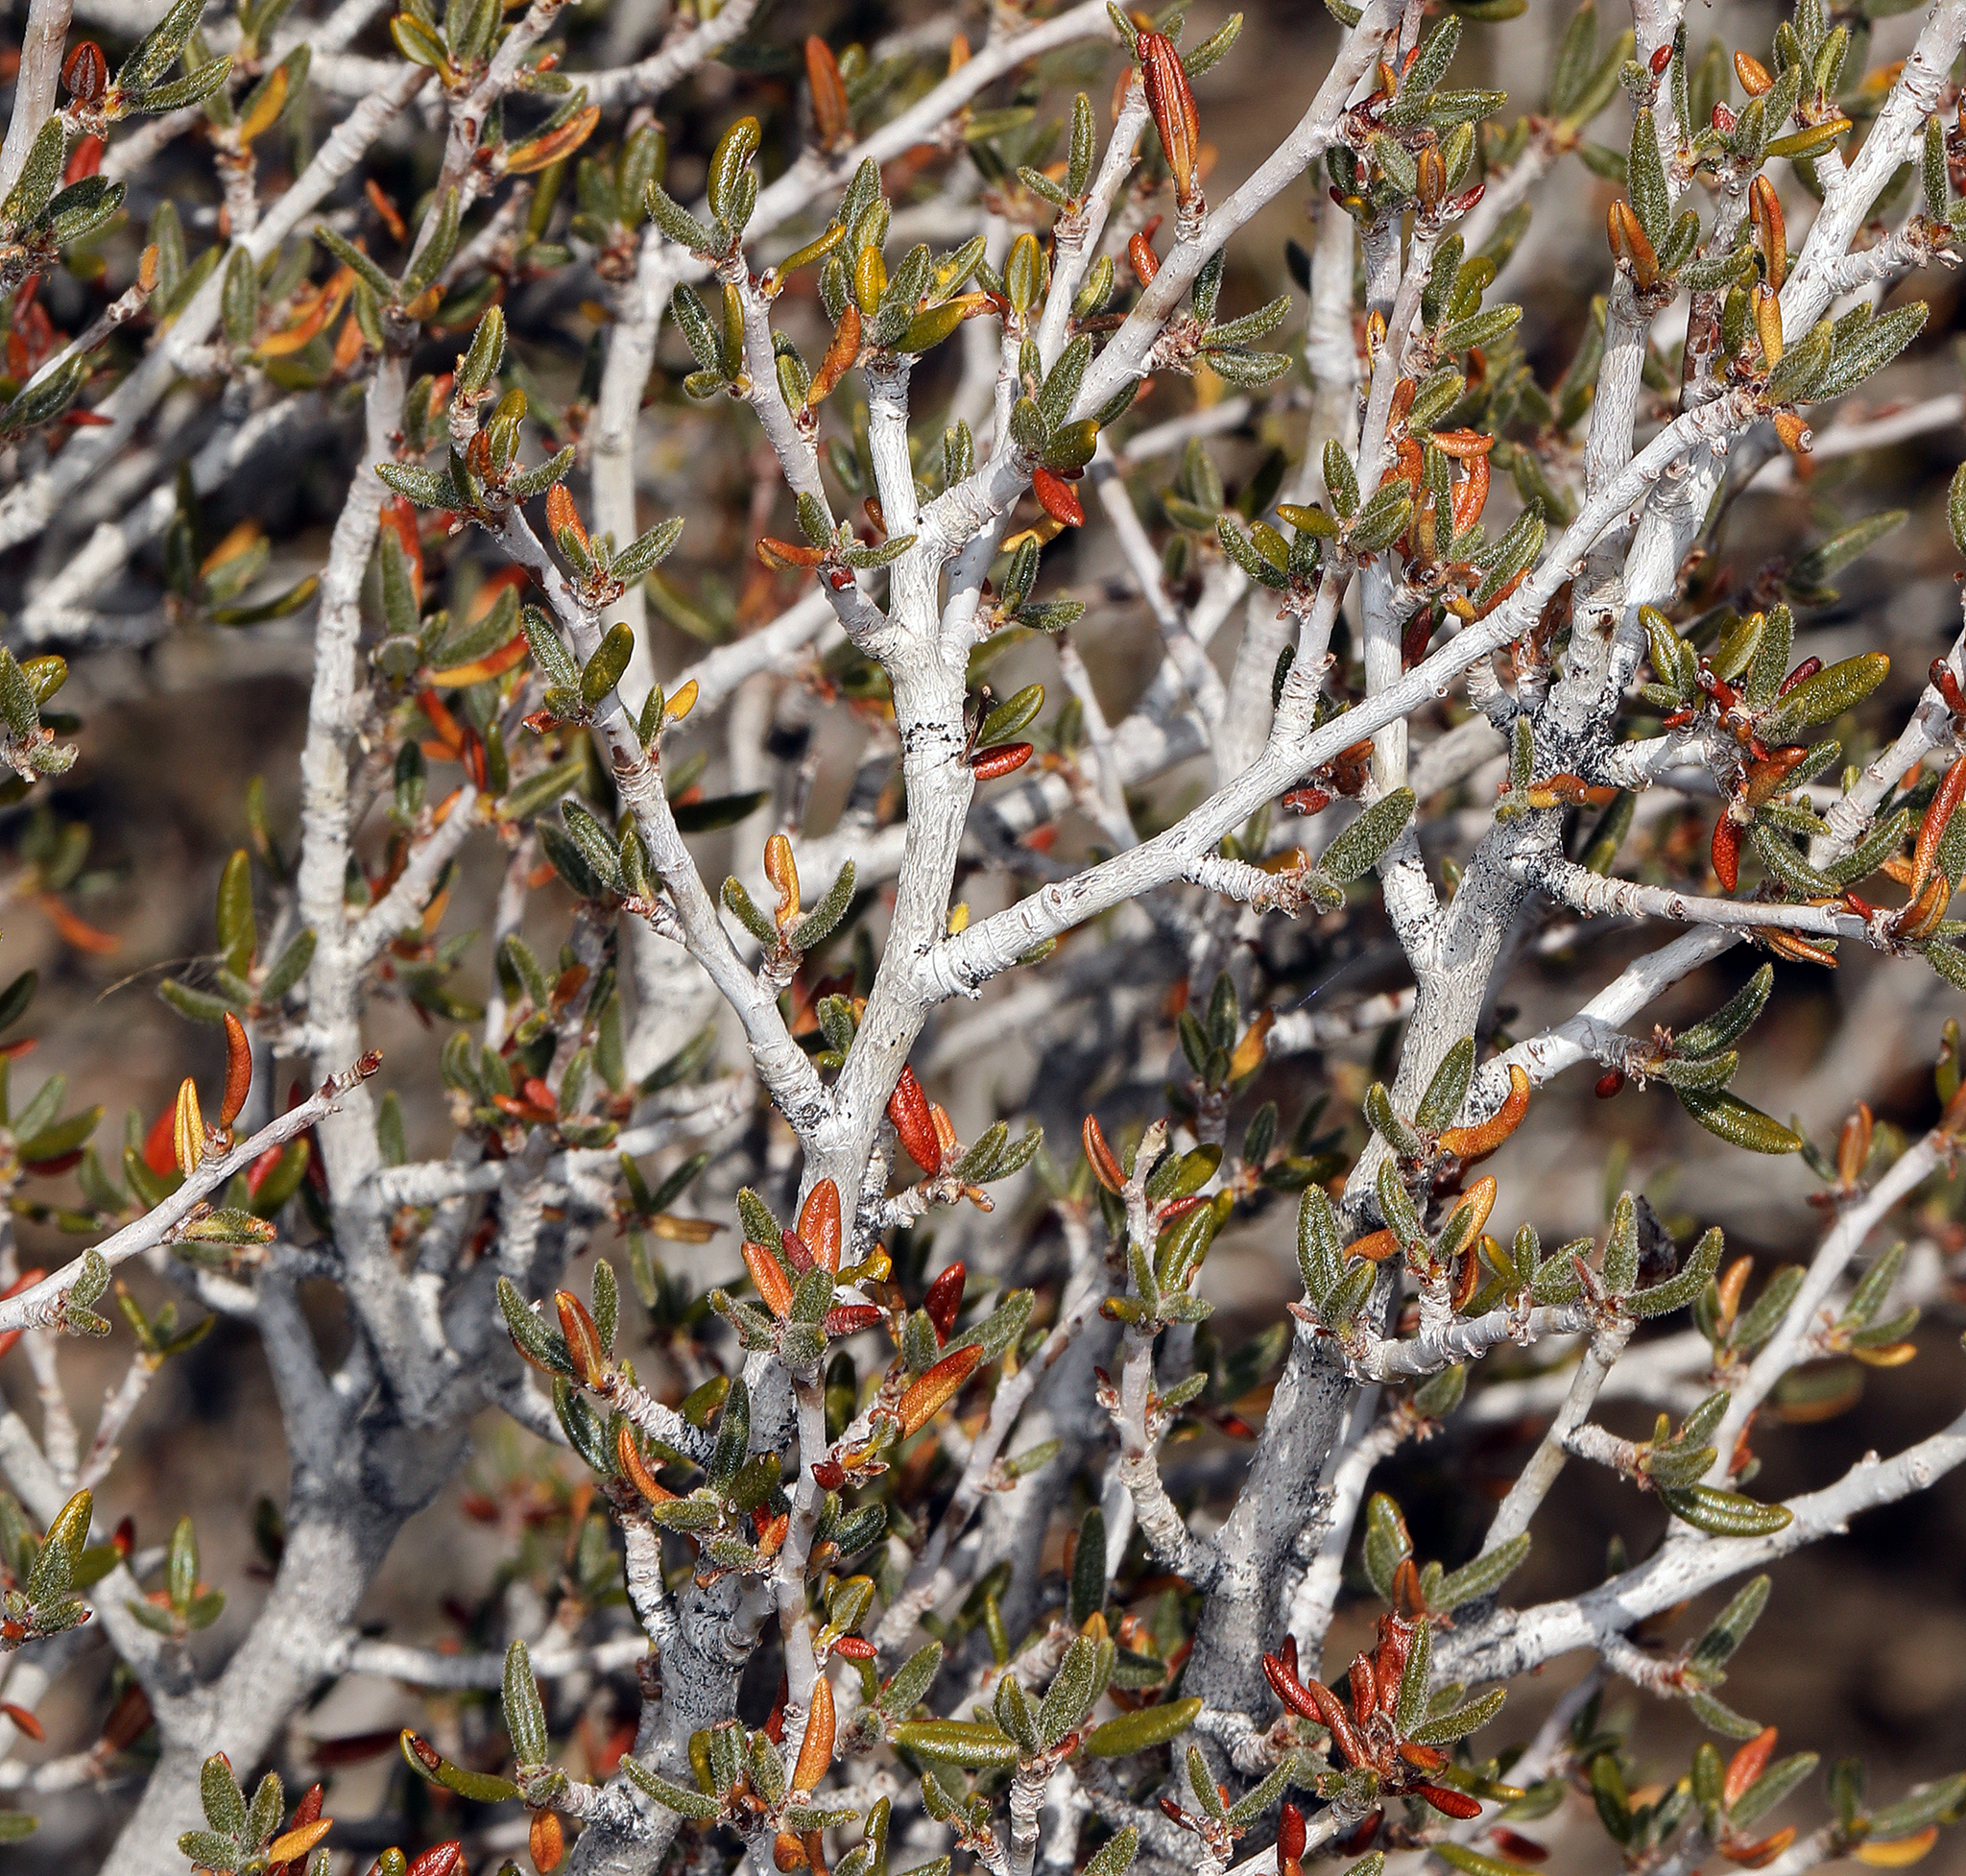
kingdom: Plantae
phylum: Tracheophyta
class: Magnoliopsida
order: Rosales
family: Rosaceae
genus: Cercocarpus
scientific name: Cercocarpus intricatus
